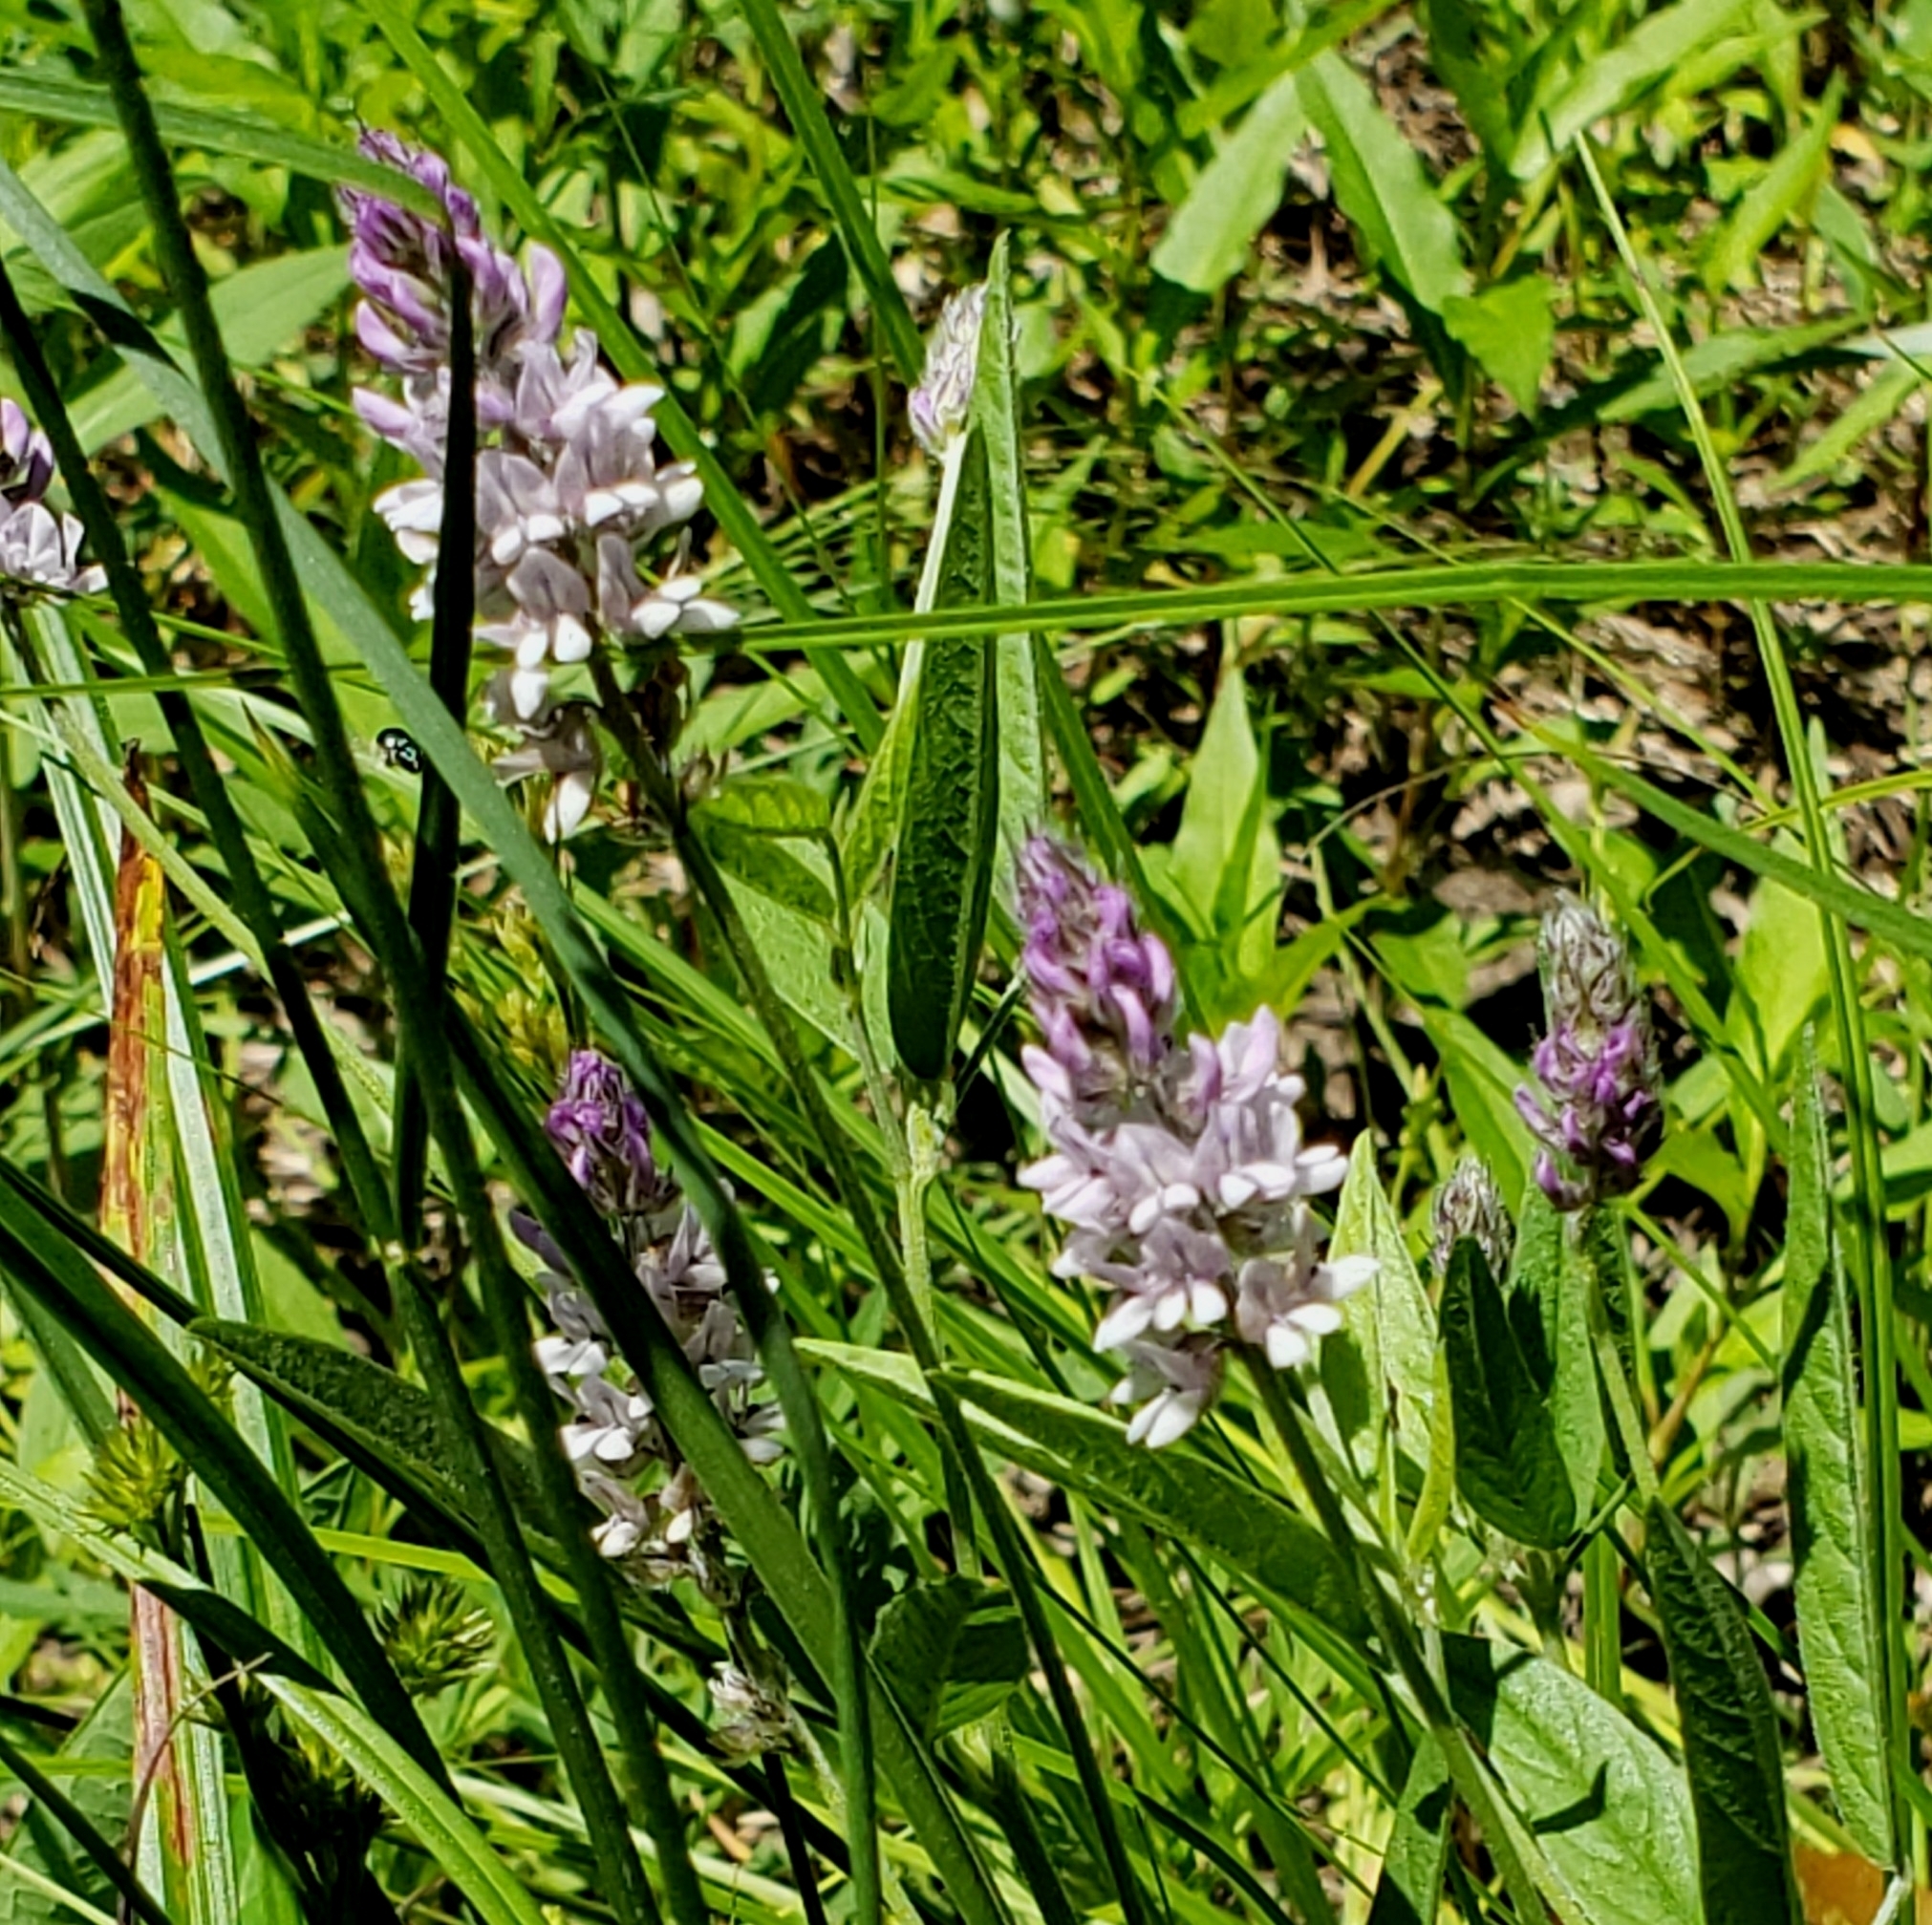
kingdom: Plantae
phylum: Tracheophyta
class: Magnoliopsida
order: Fabales
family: Fabaceae
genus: Orbexilum
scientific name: Orbexilum pedunculatum
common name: Sampson's snakeroot
